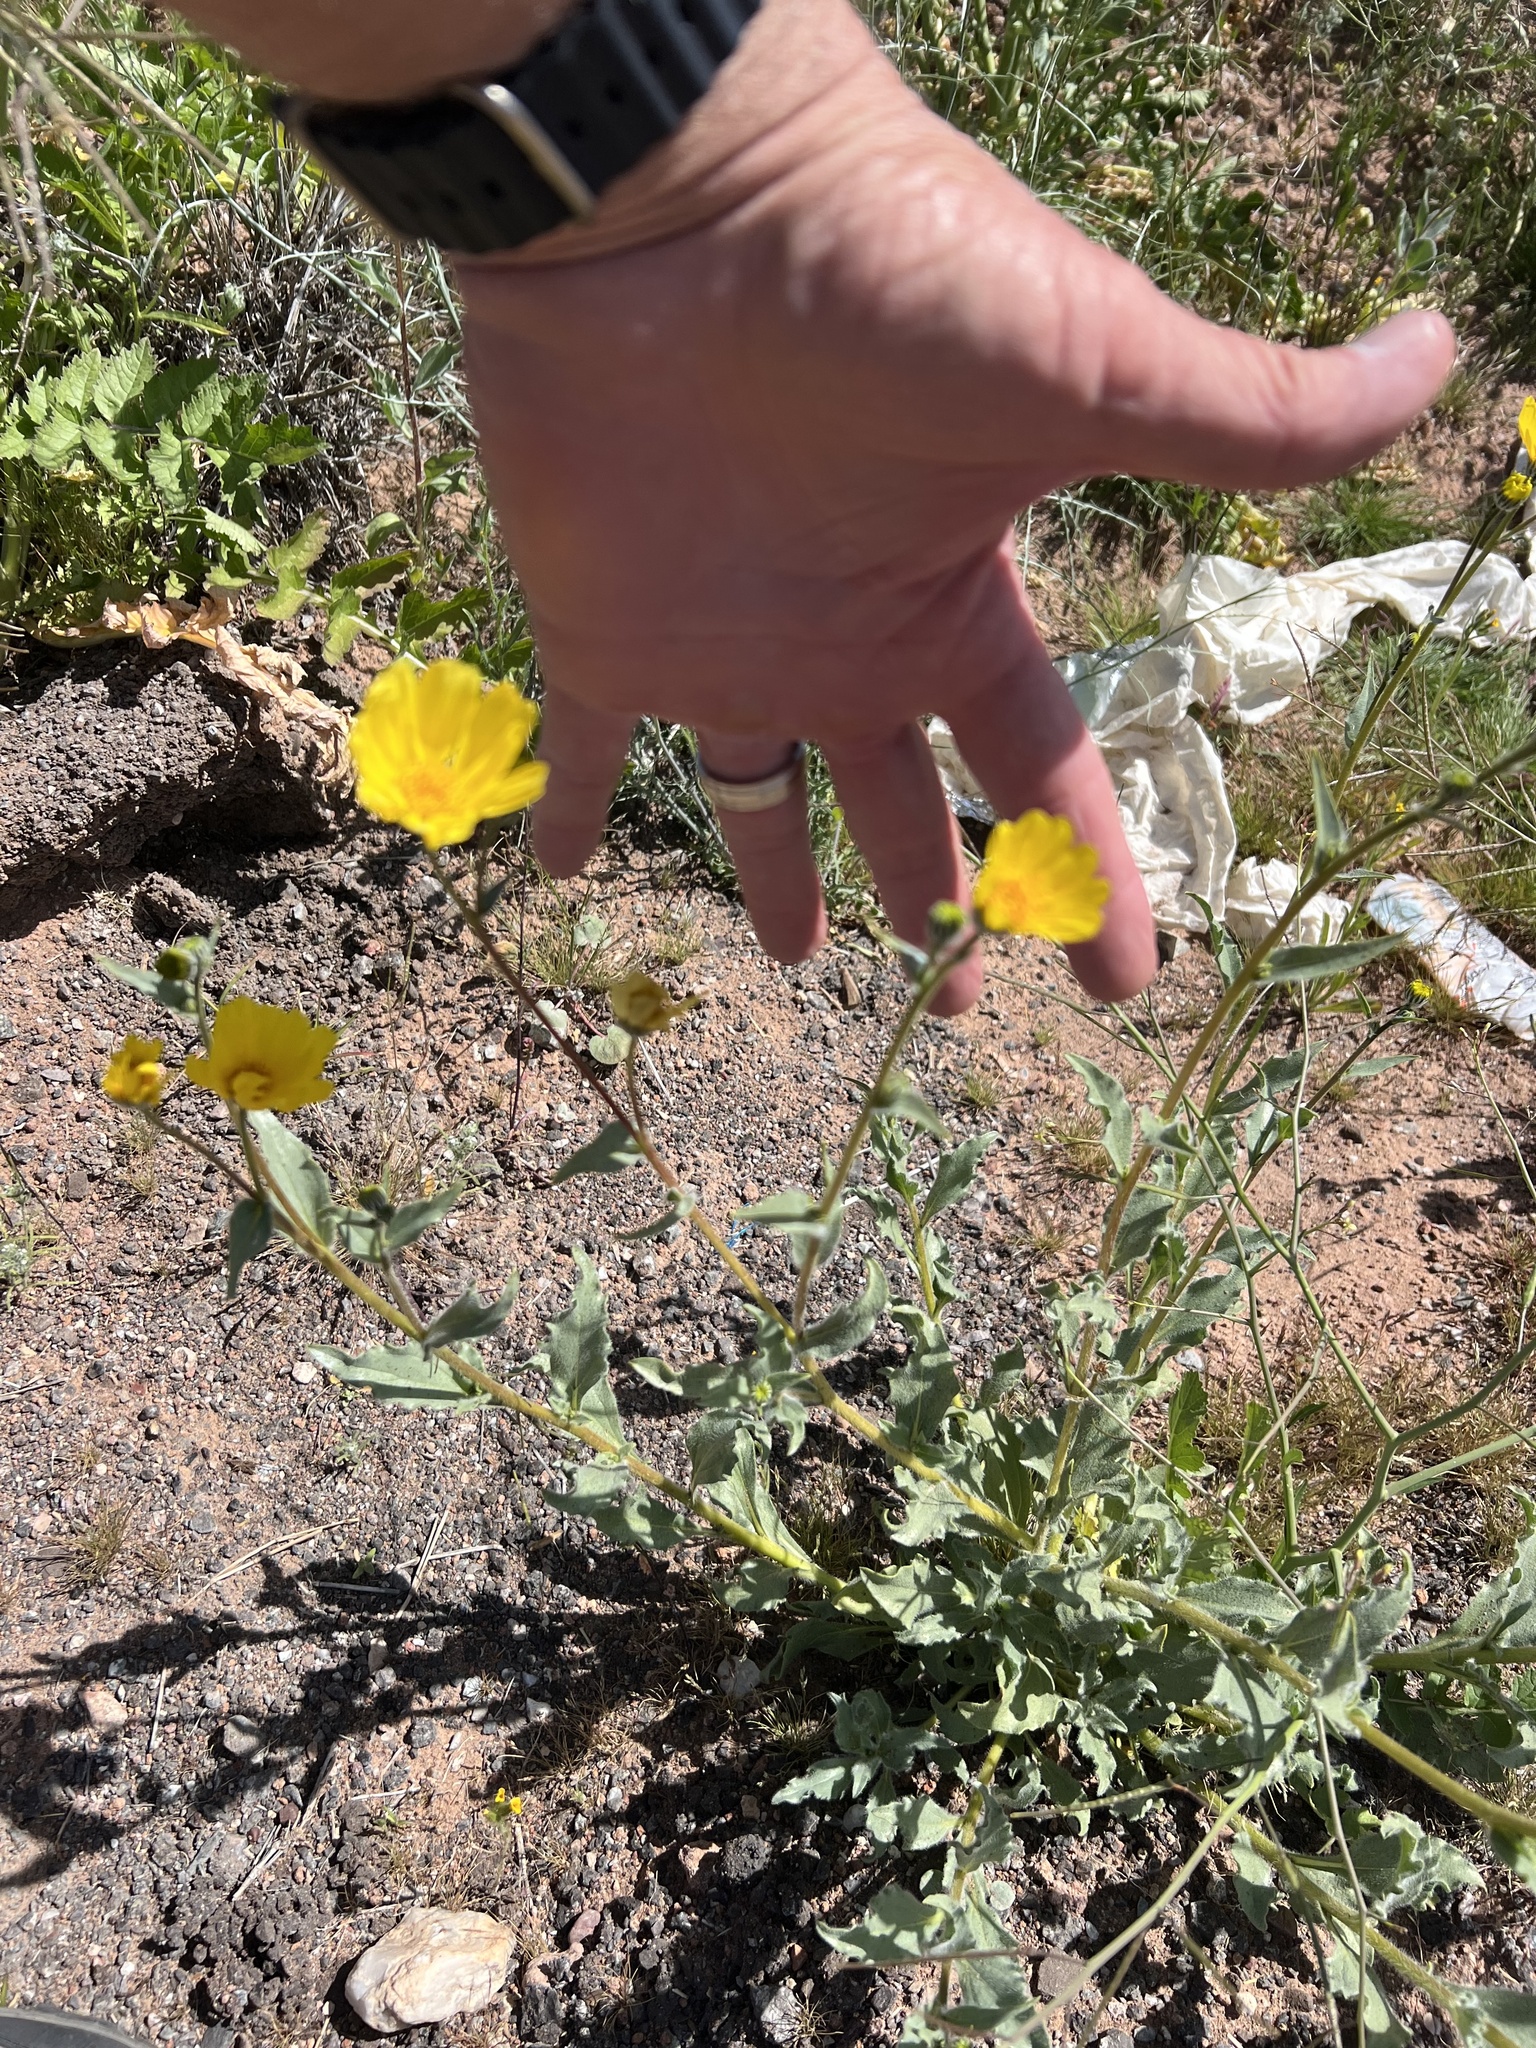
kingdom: Plantae
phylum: Tracheophyta
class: Magnoliopsida
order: Asterales
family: Asteraceae
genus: Geraea
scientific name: Geraea canescens
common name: Desert-gold
